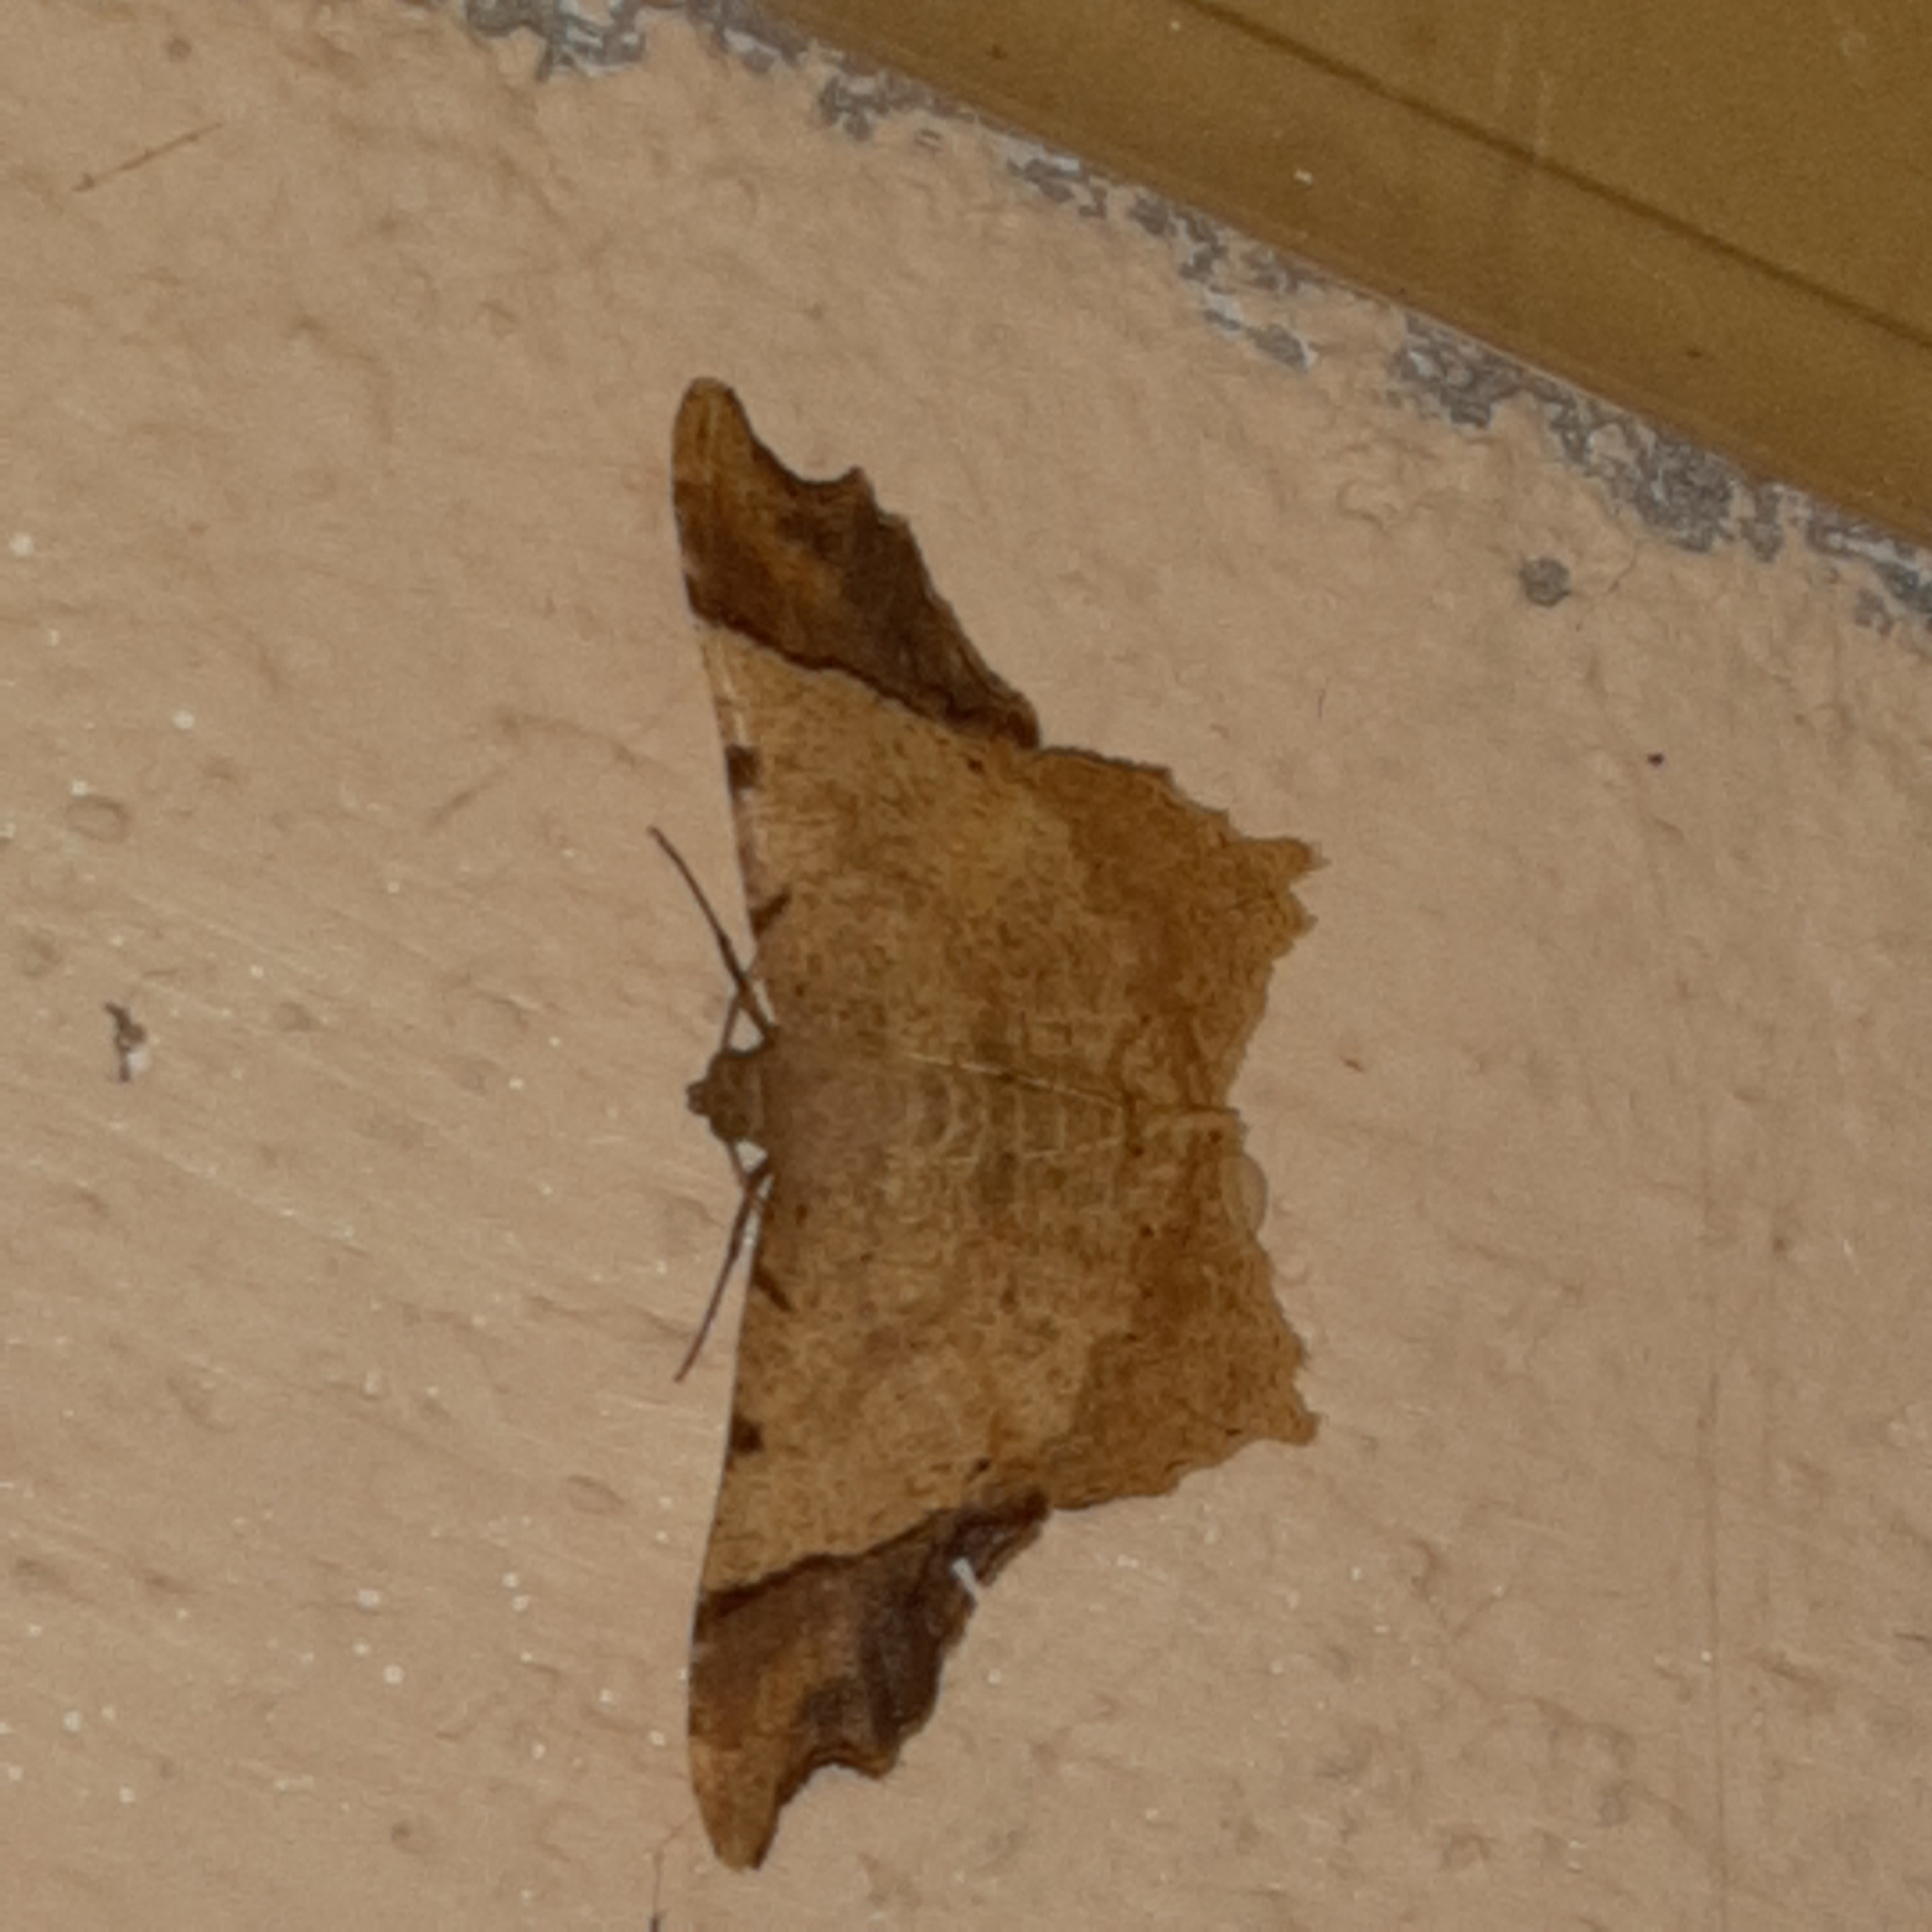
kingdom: Animalia
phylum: Arthropoda
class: Insecta
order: Lepidoptera
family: Geometridae
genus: Macaria
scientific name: Macaria gambarina
